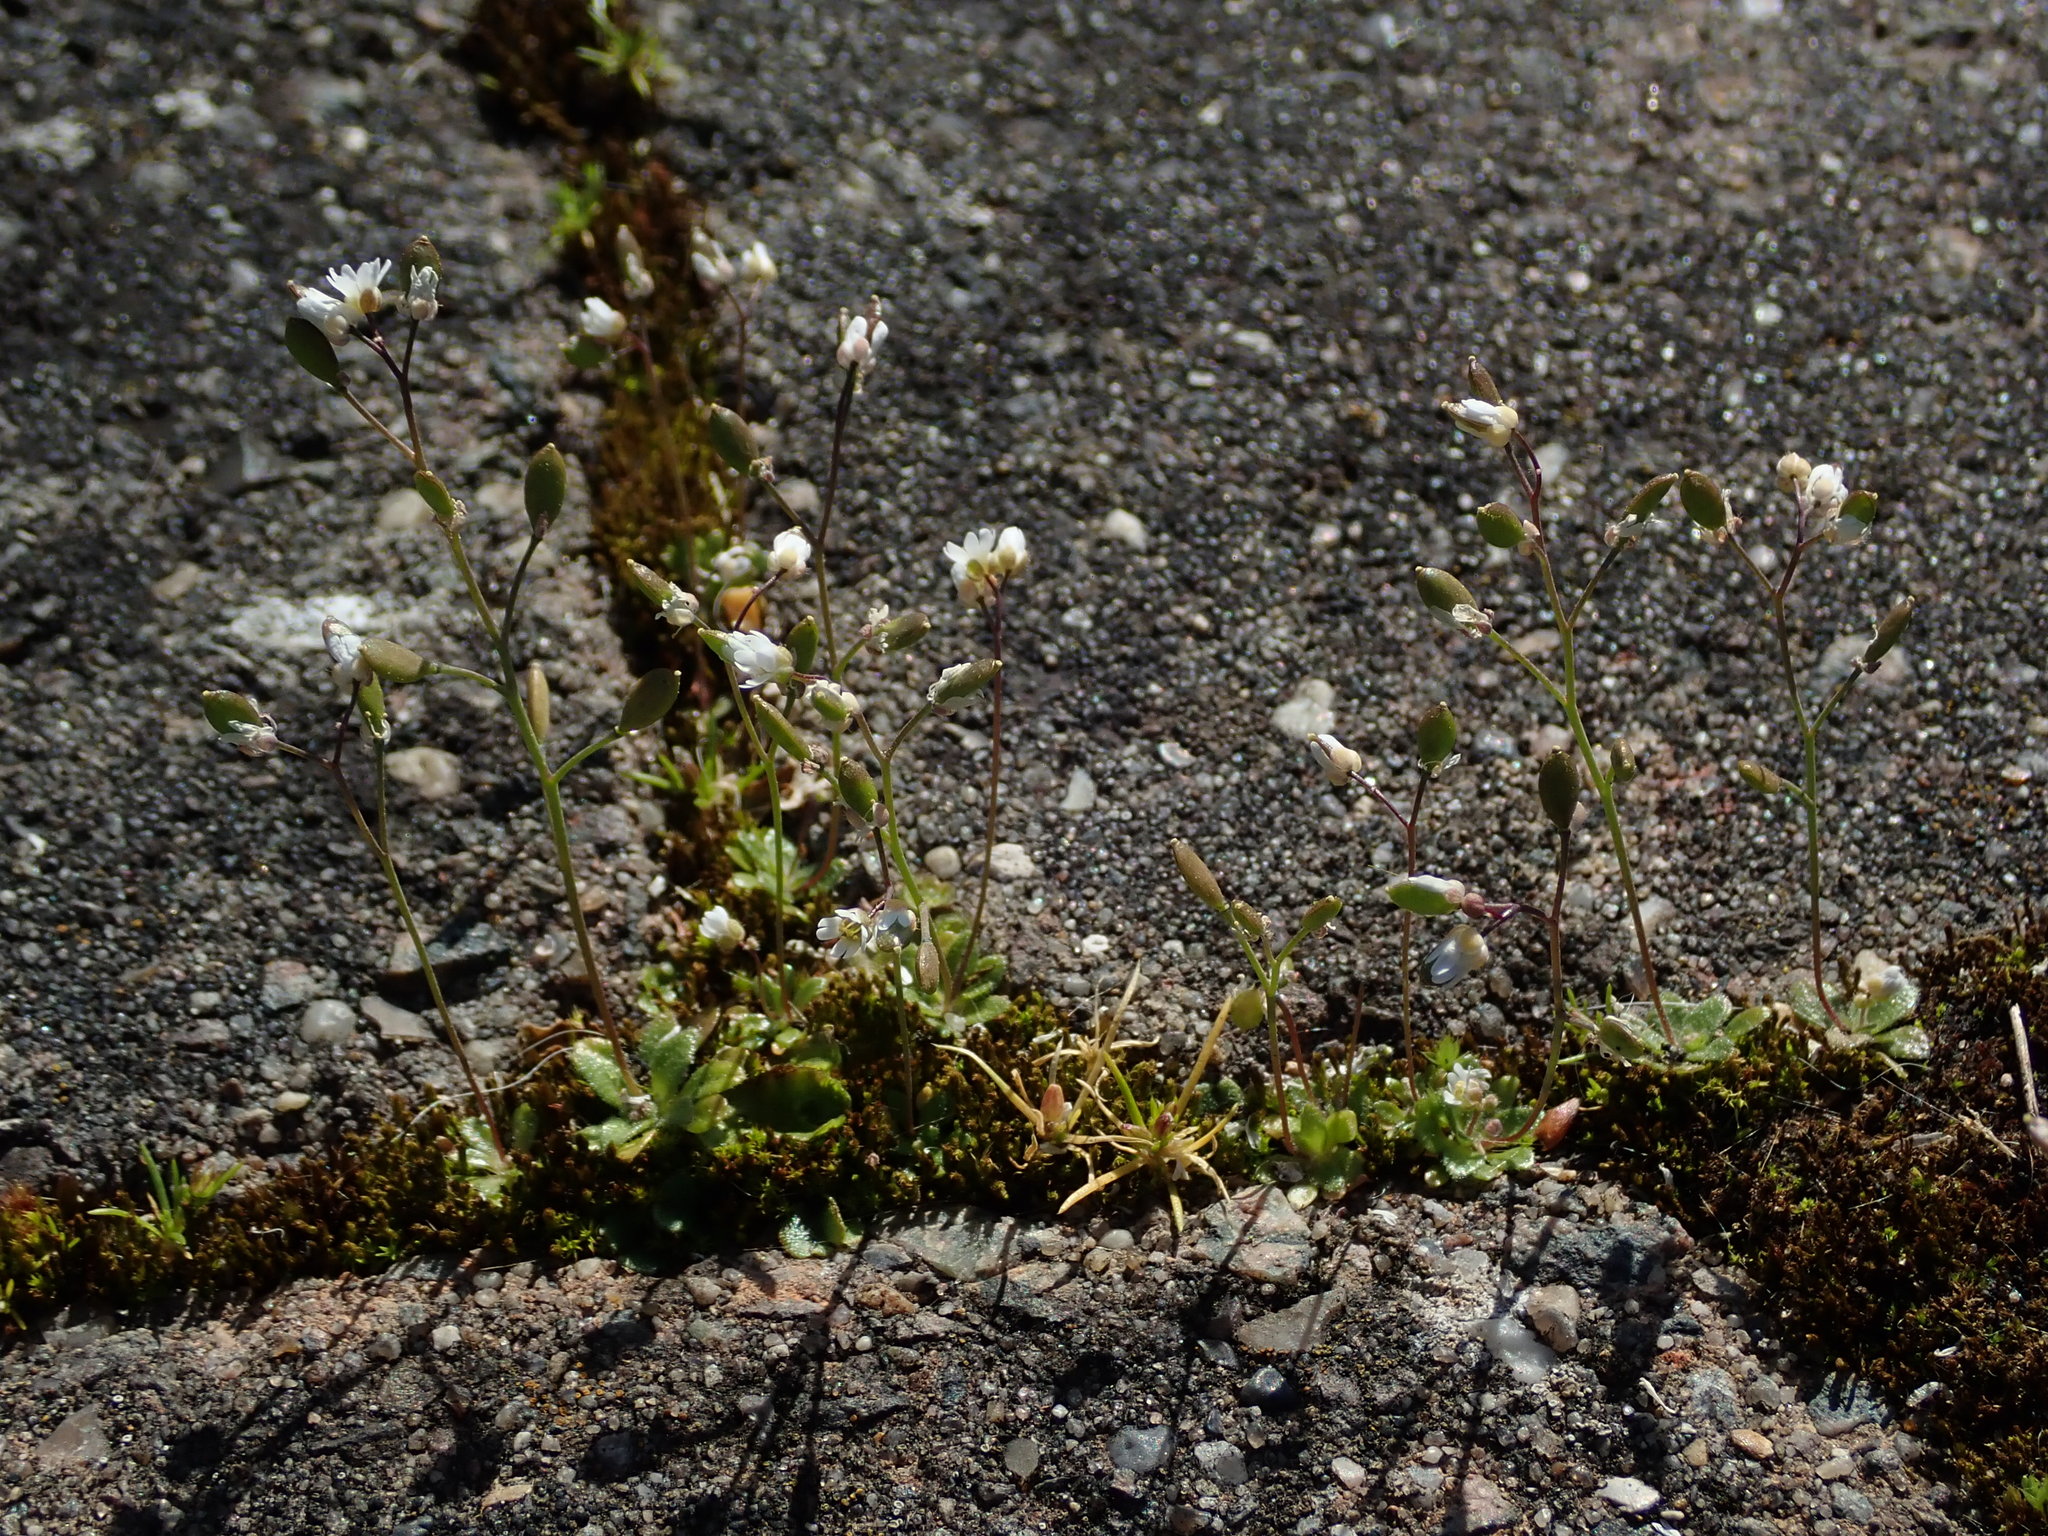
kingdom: Plantae
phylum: Tracheophyta
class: Magnoliopsida
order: Brassicales
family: Brassicaceae
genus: Draba
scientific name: Draba verna
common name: Spring draba
